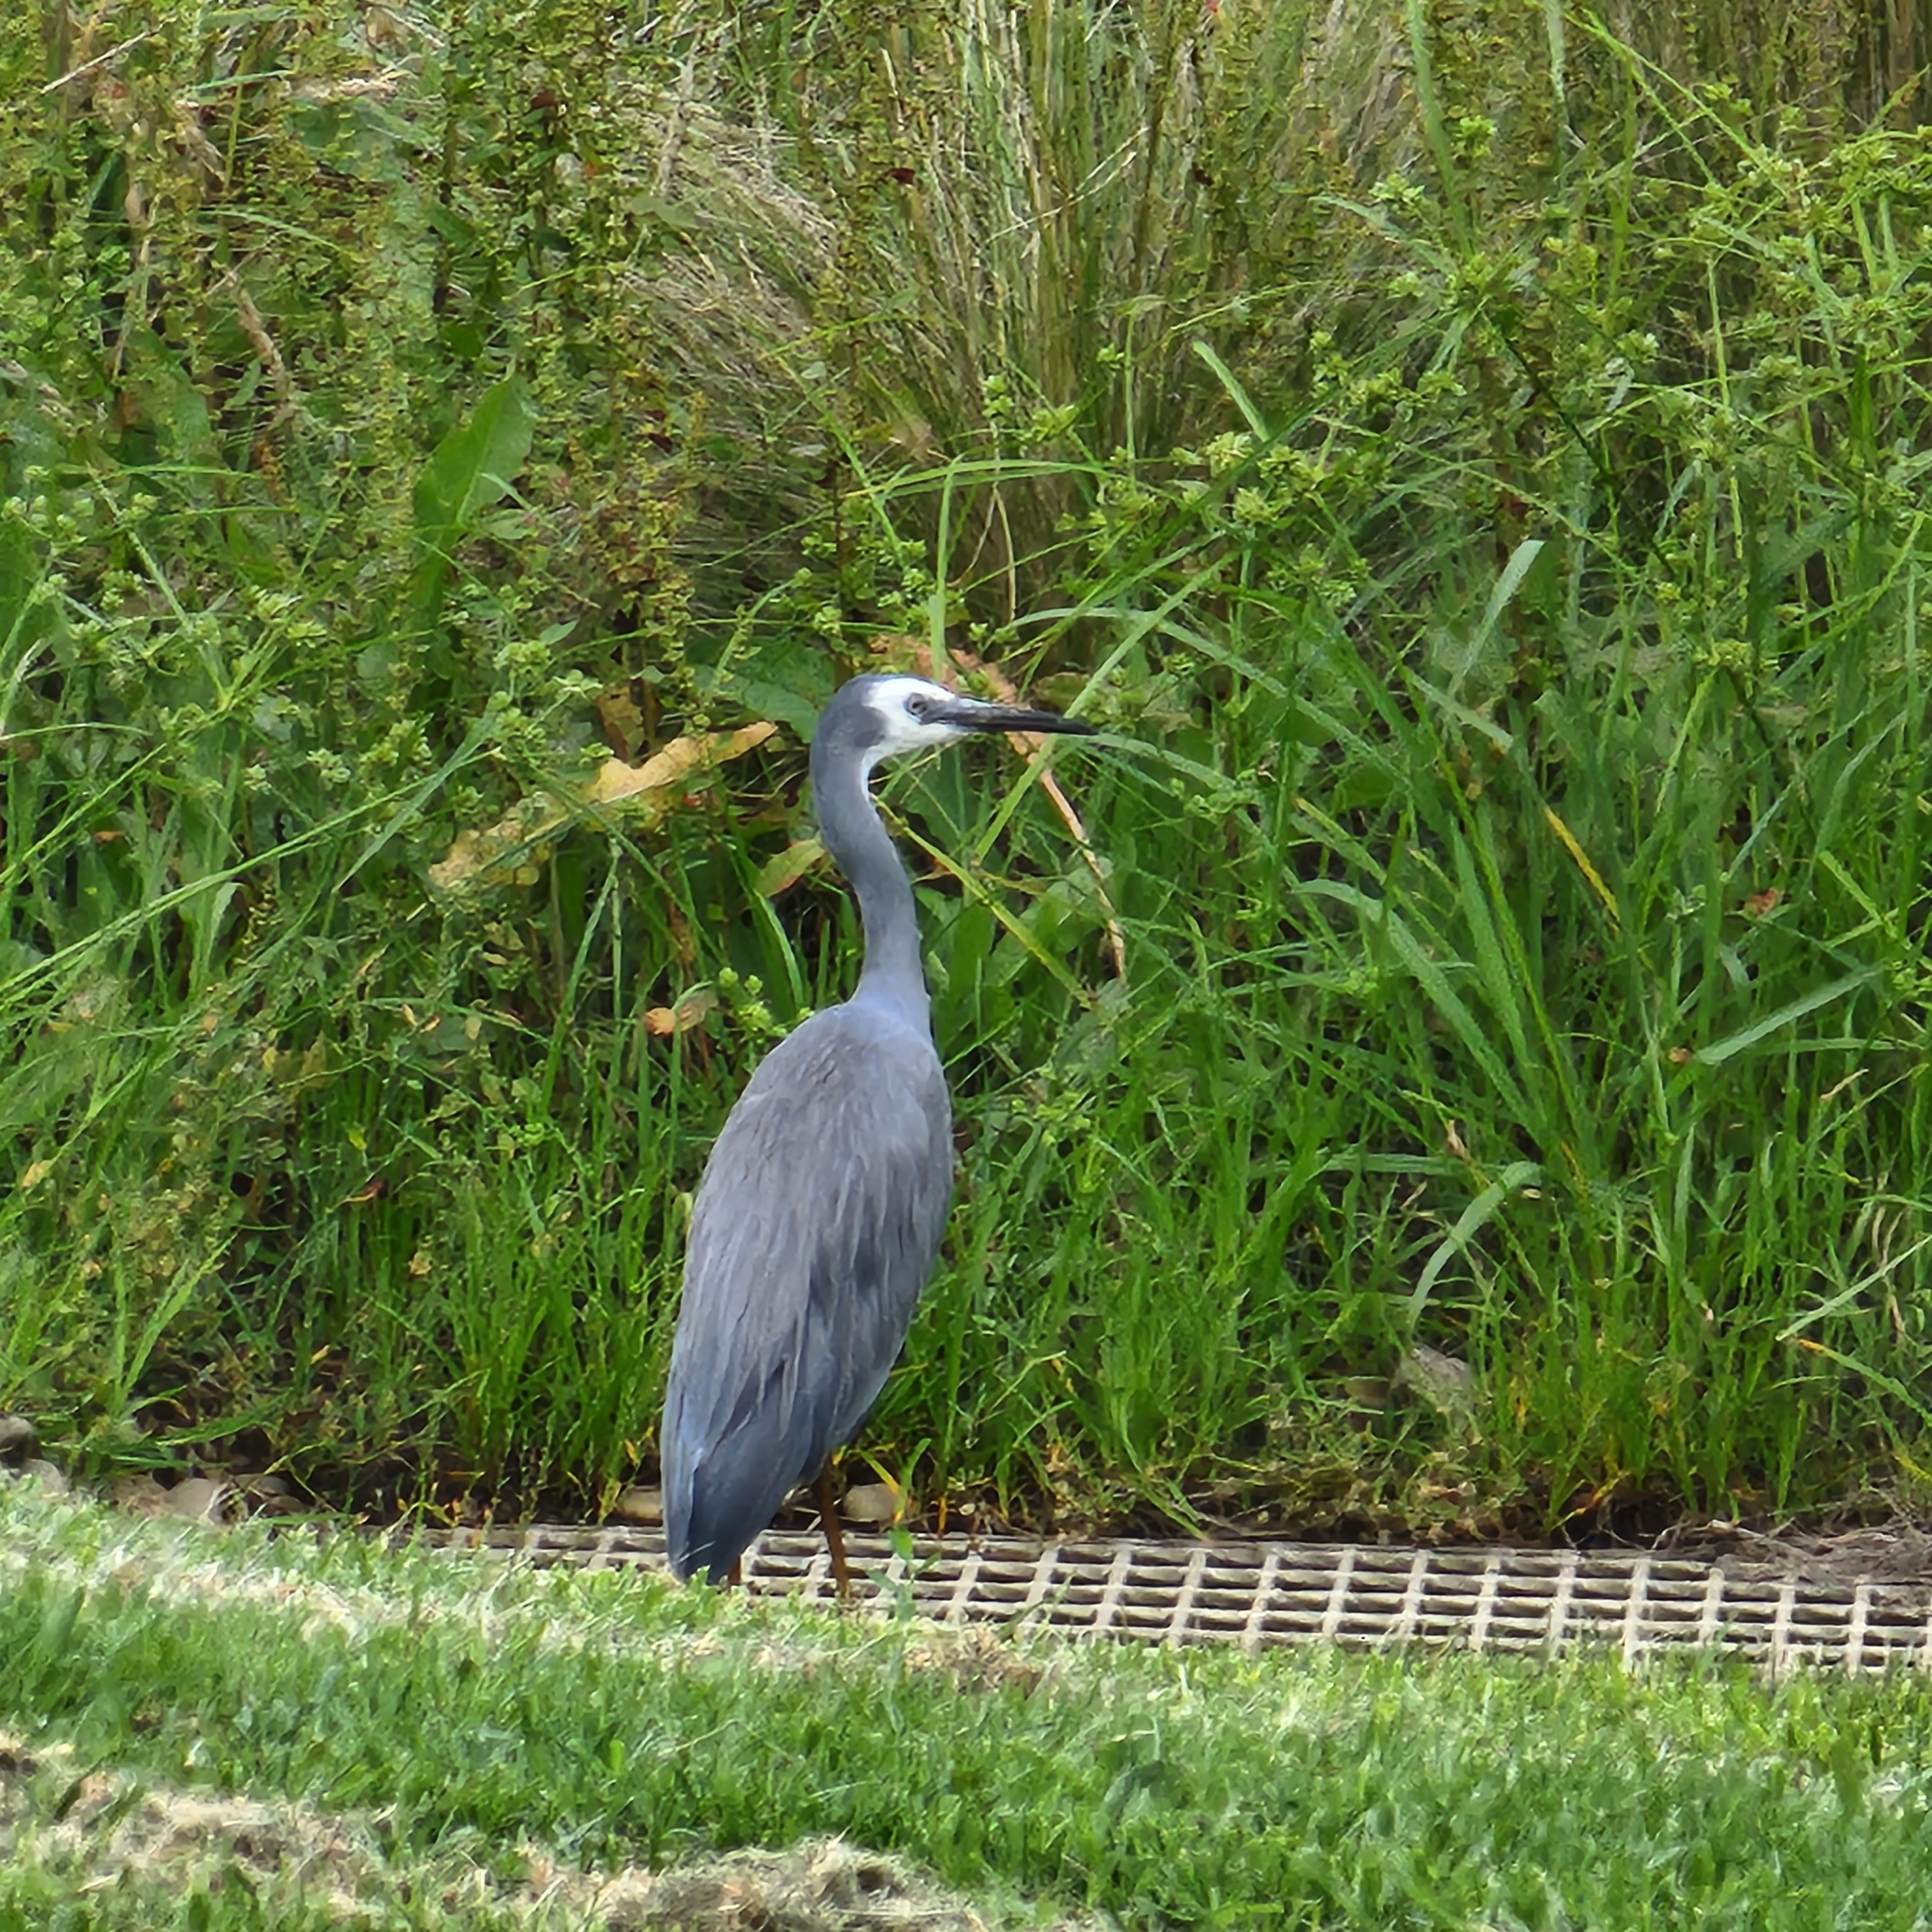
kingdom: Animalia
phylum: Chordata
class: Aves
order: Pelecaniformes
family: Ardeidae
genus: Egretta
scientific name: Egretta novaehollandiae
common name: White-faced heron
